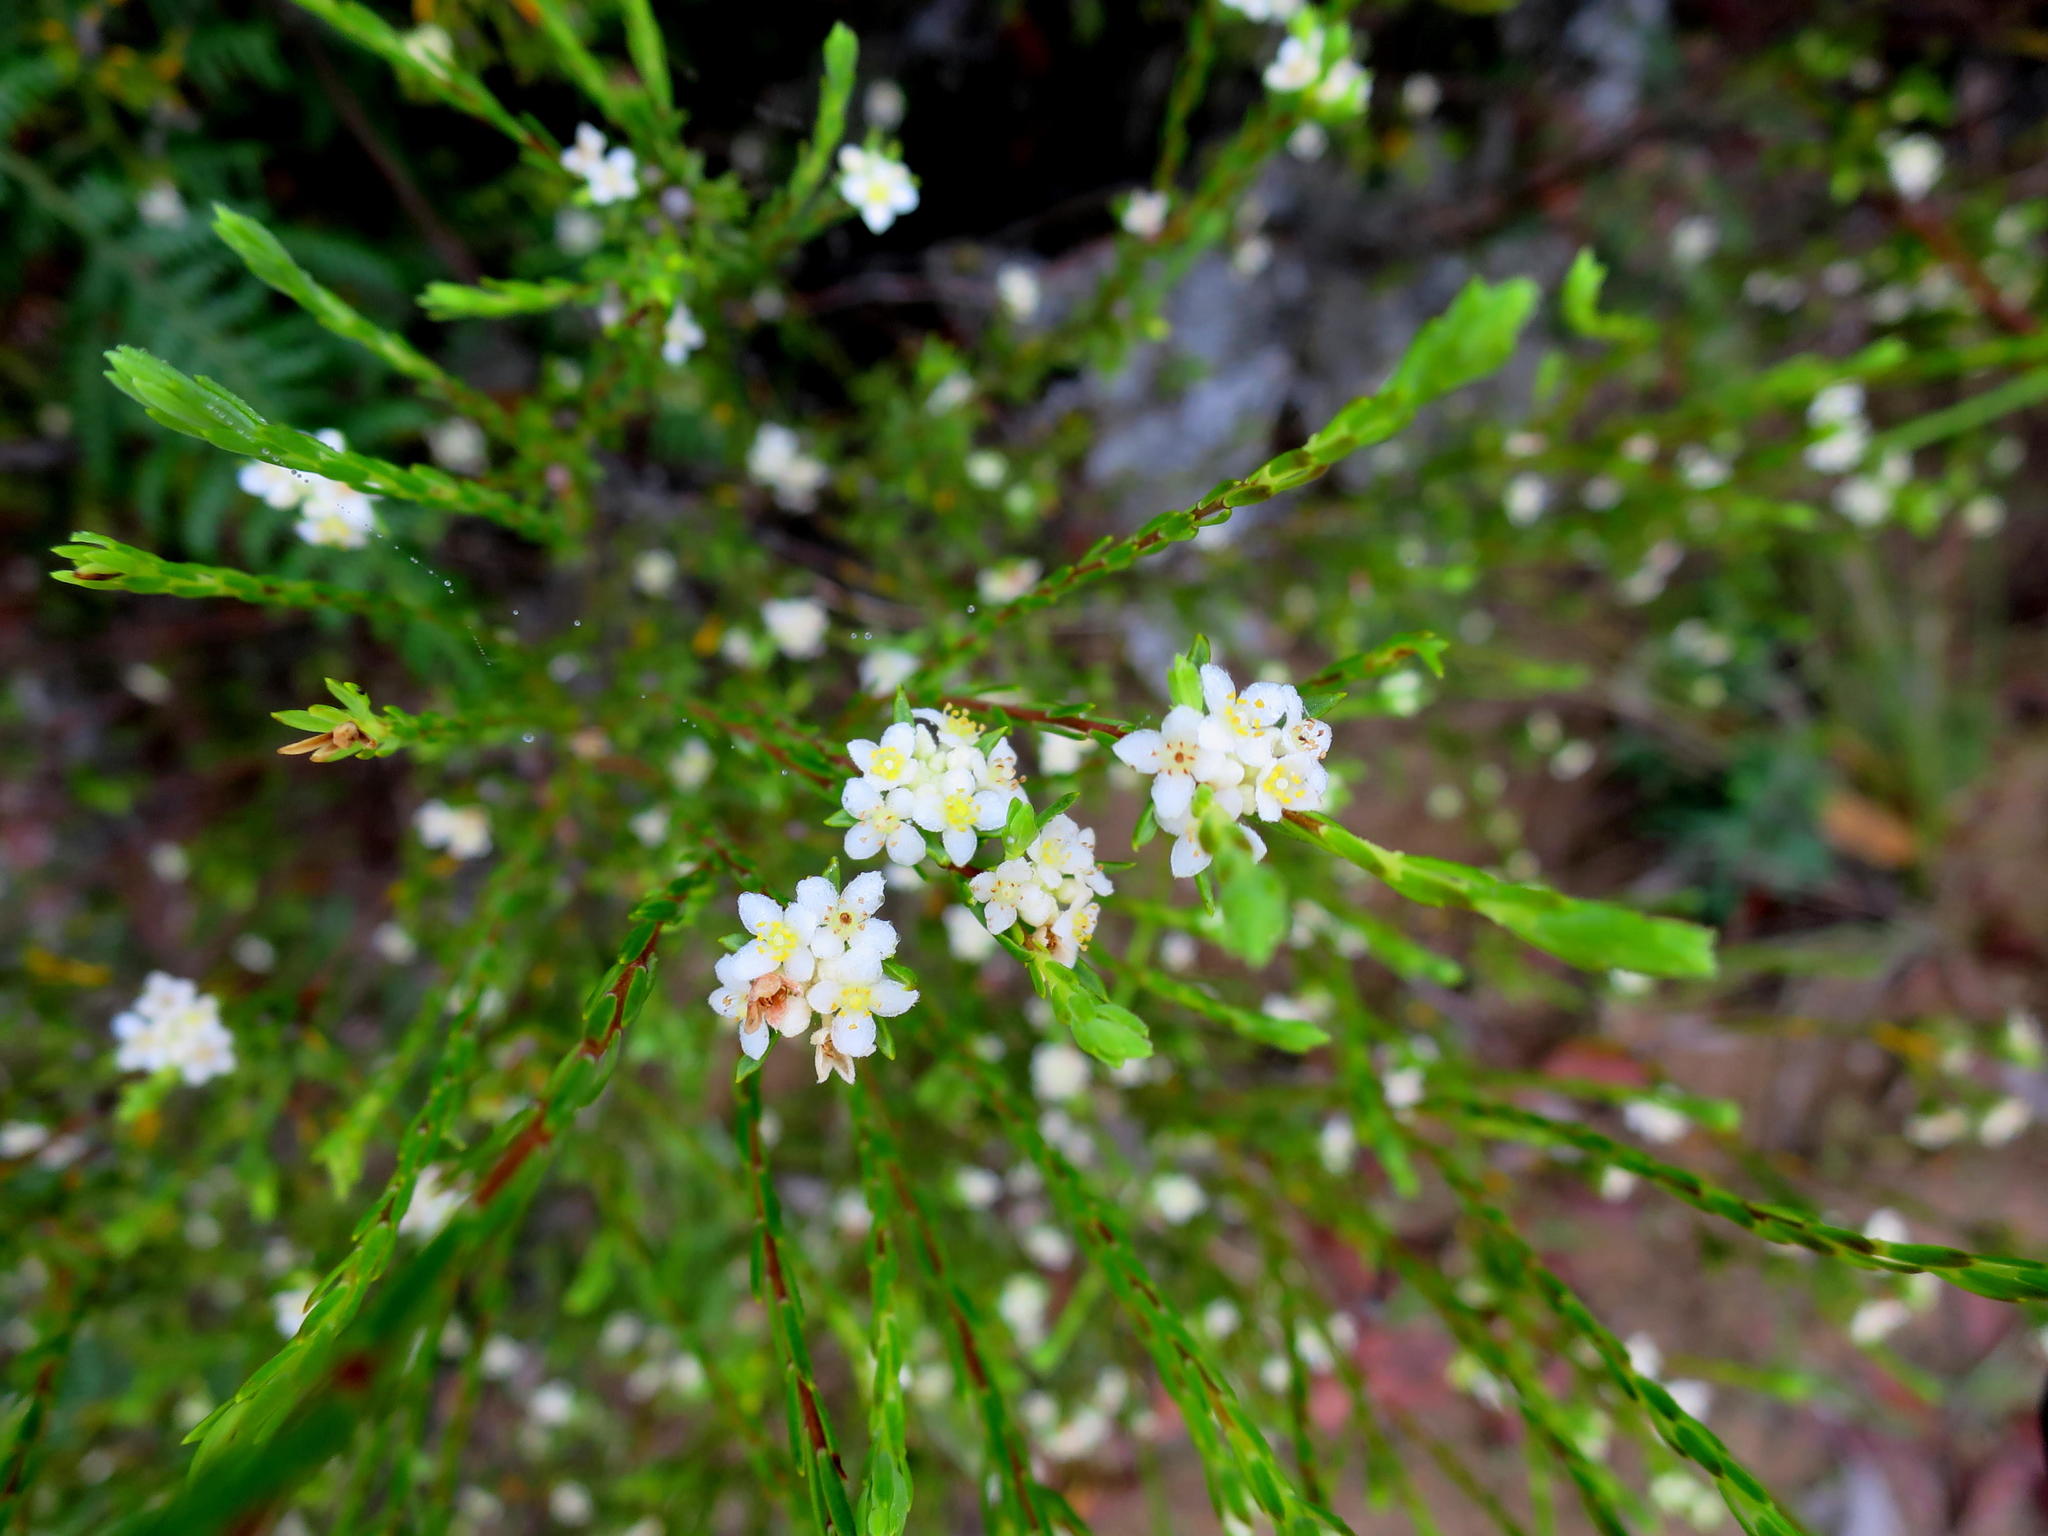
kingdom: Plantae
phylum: Tracheophyta
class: Magnoliopsida
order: Malvales
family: Thymelaeaceae
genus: Lachnaea
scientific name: Lachnaea diosmoides
